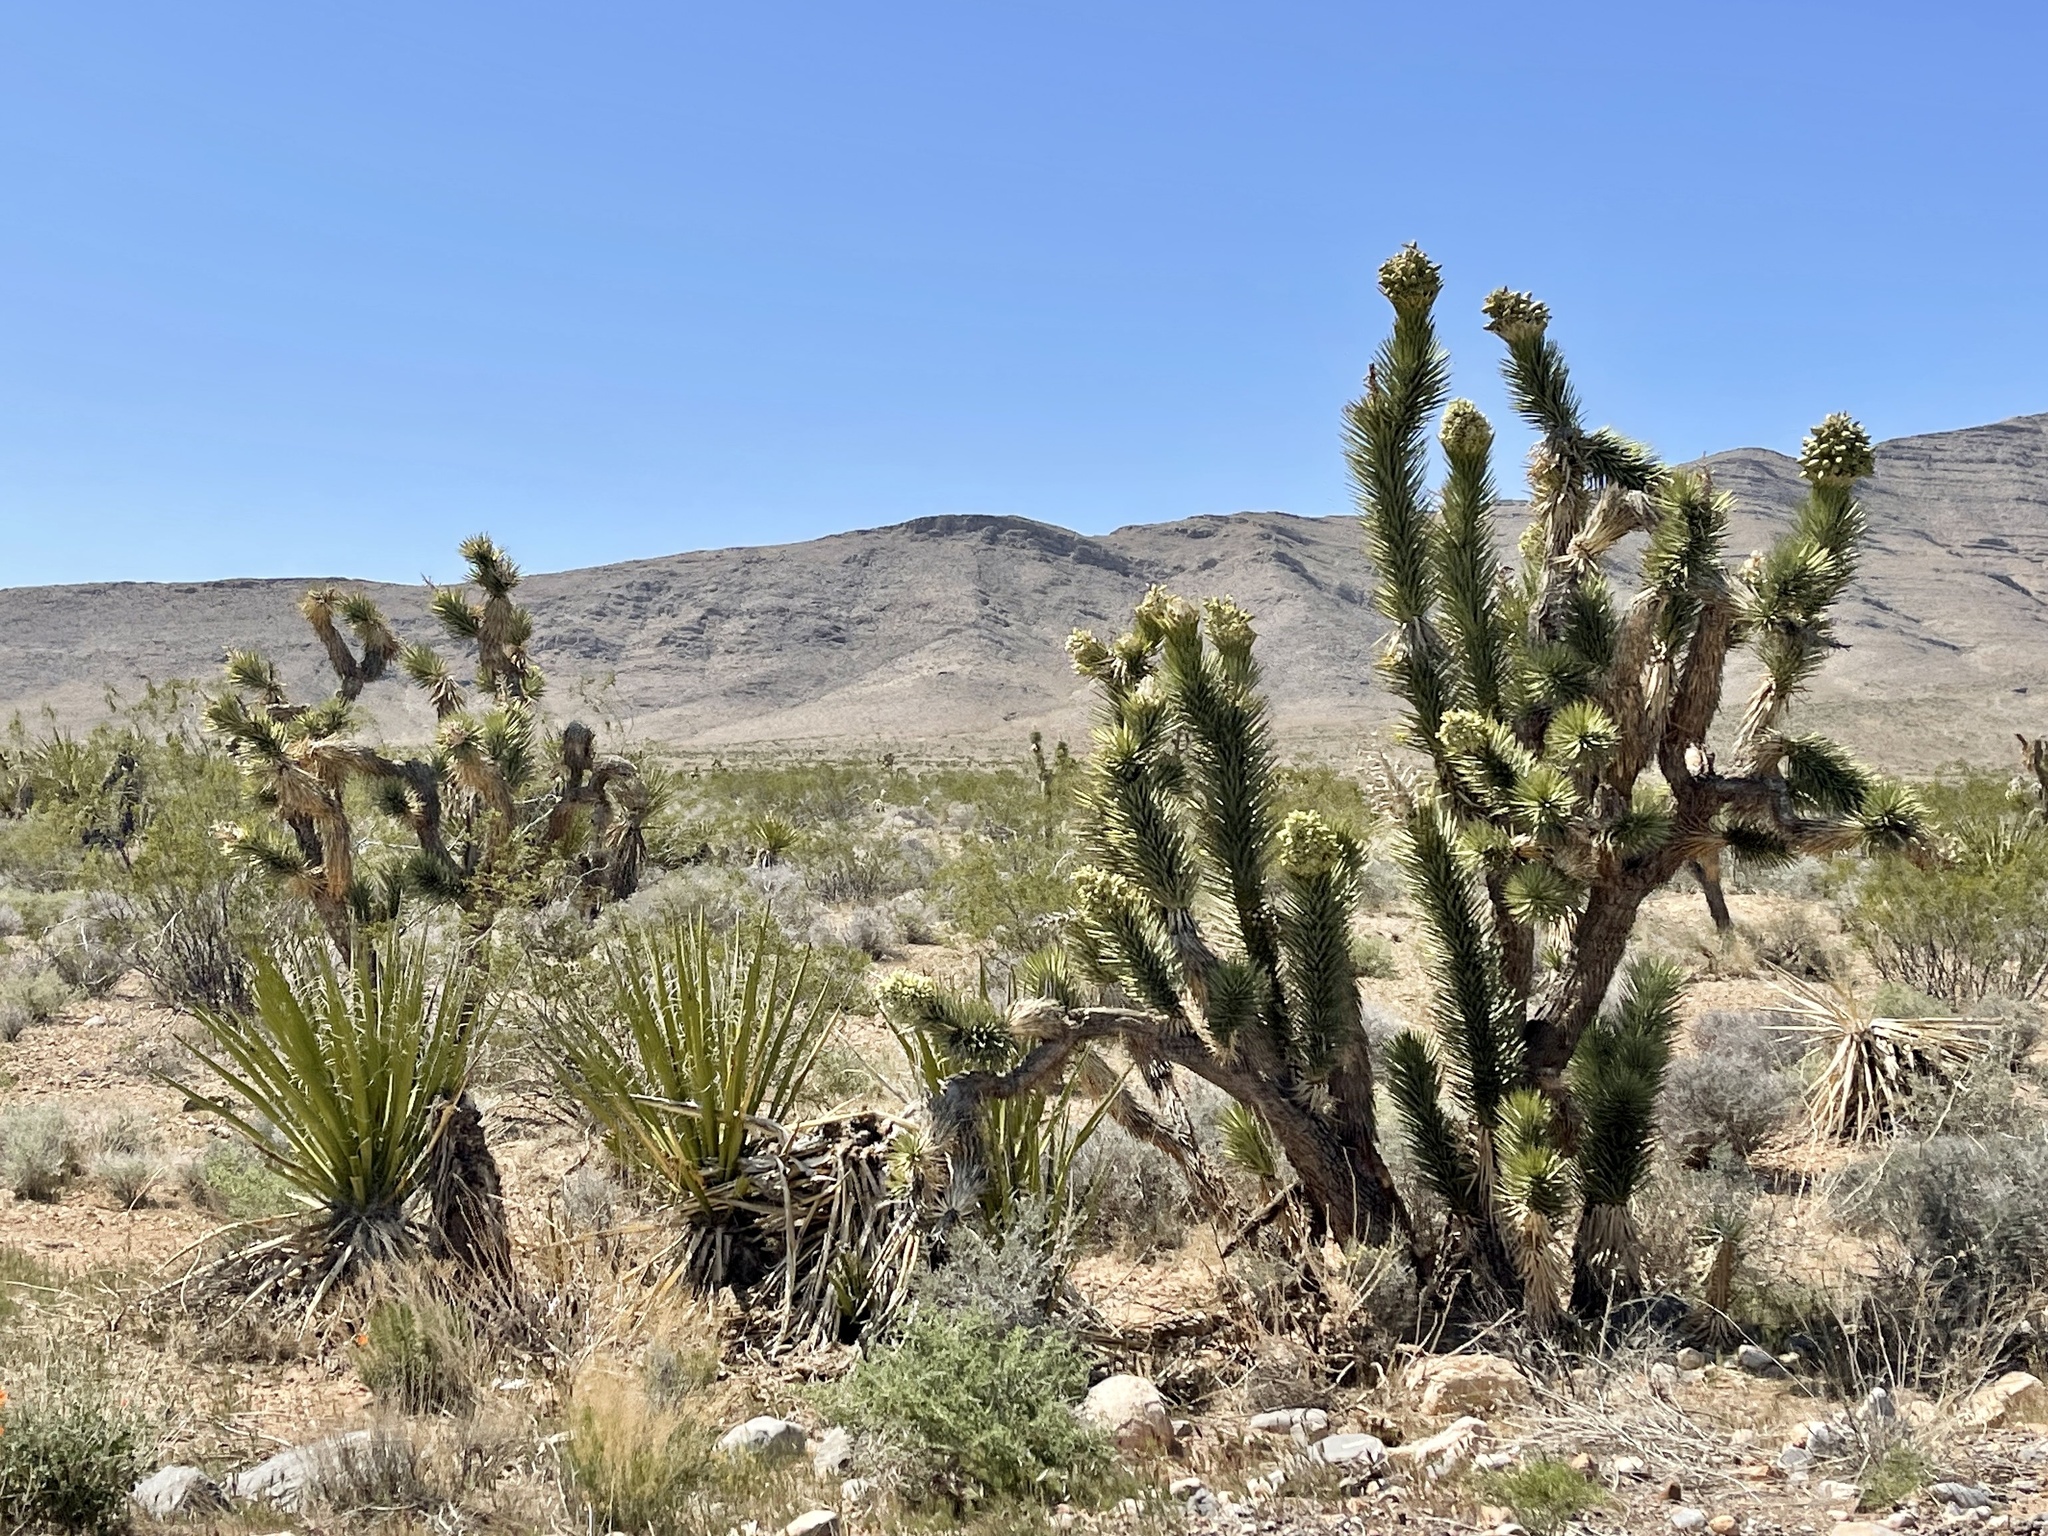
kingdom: Plantae
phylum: Tracheophyta
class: Liliopsida
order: Asparagales
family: Asparagaceae
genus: Yucca
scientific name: Yucca brevifolia
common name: Joshua tree
